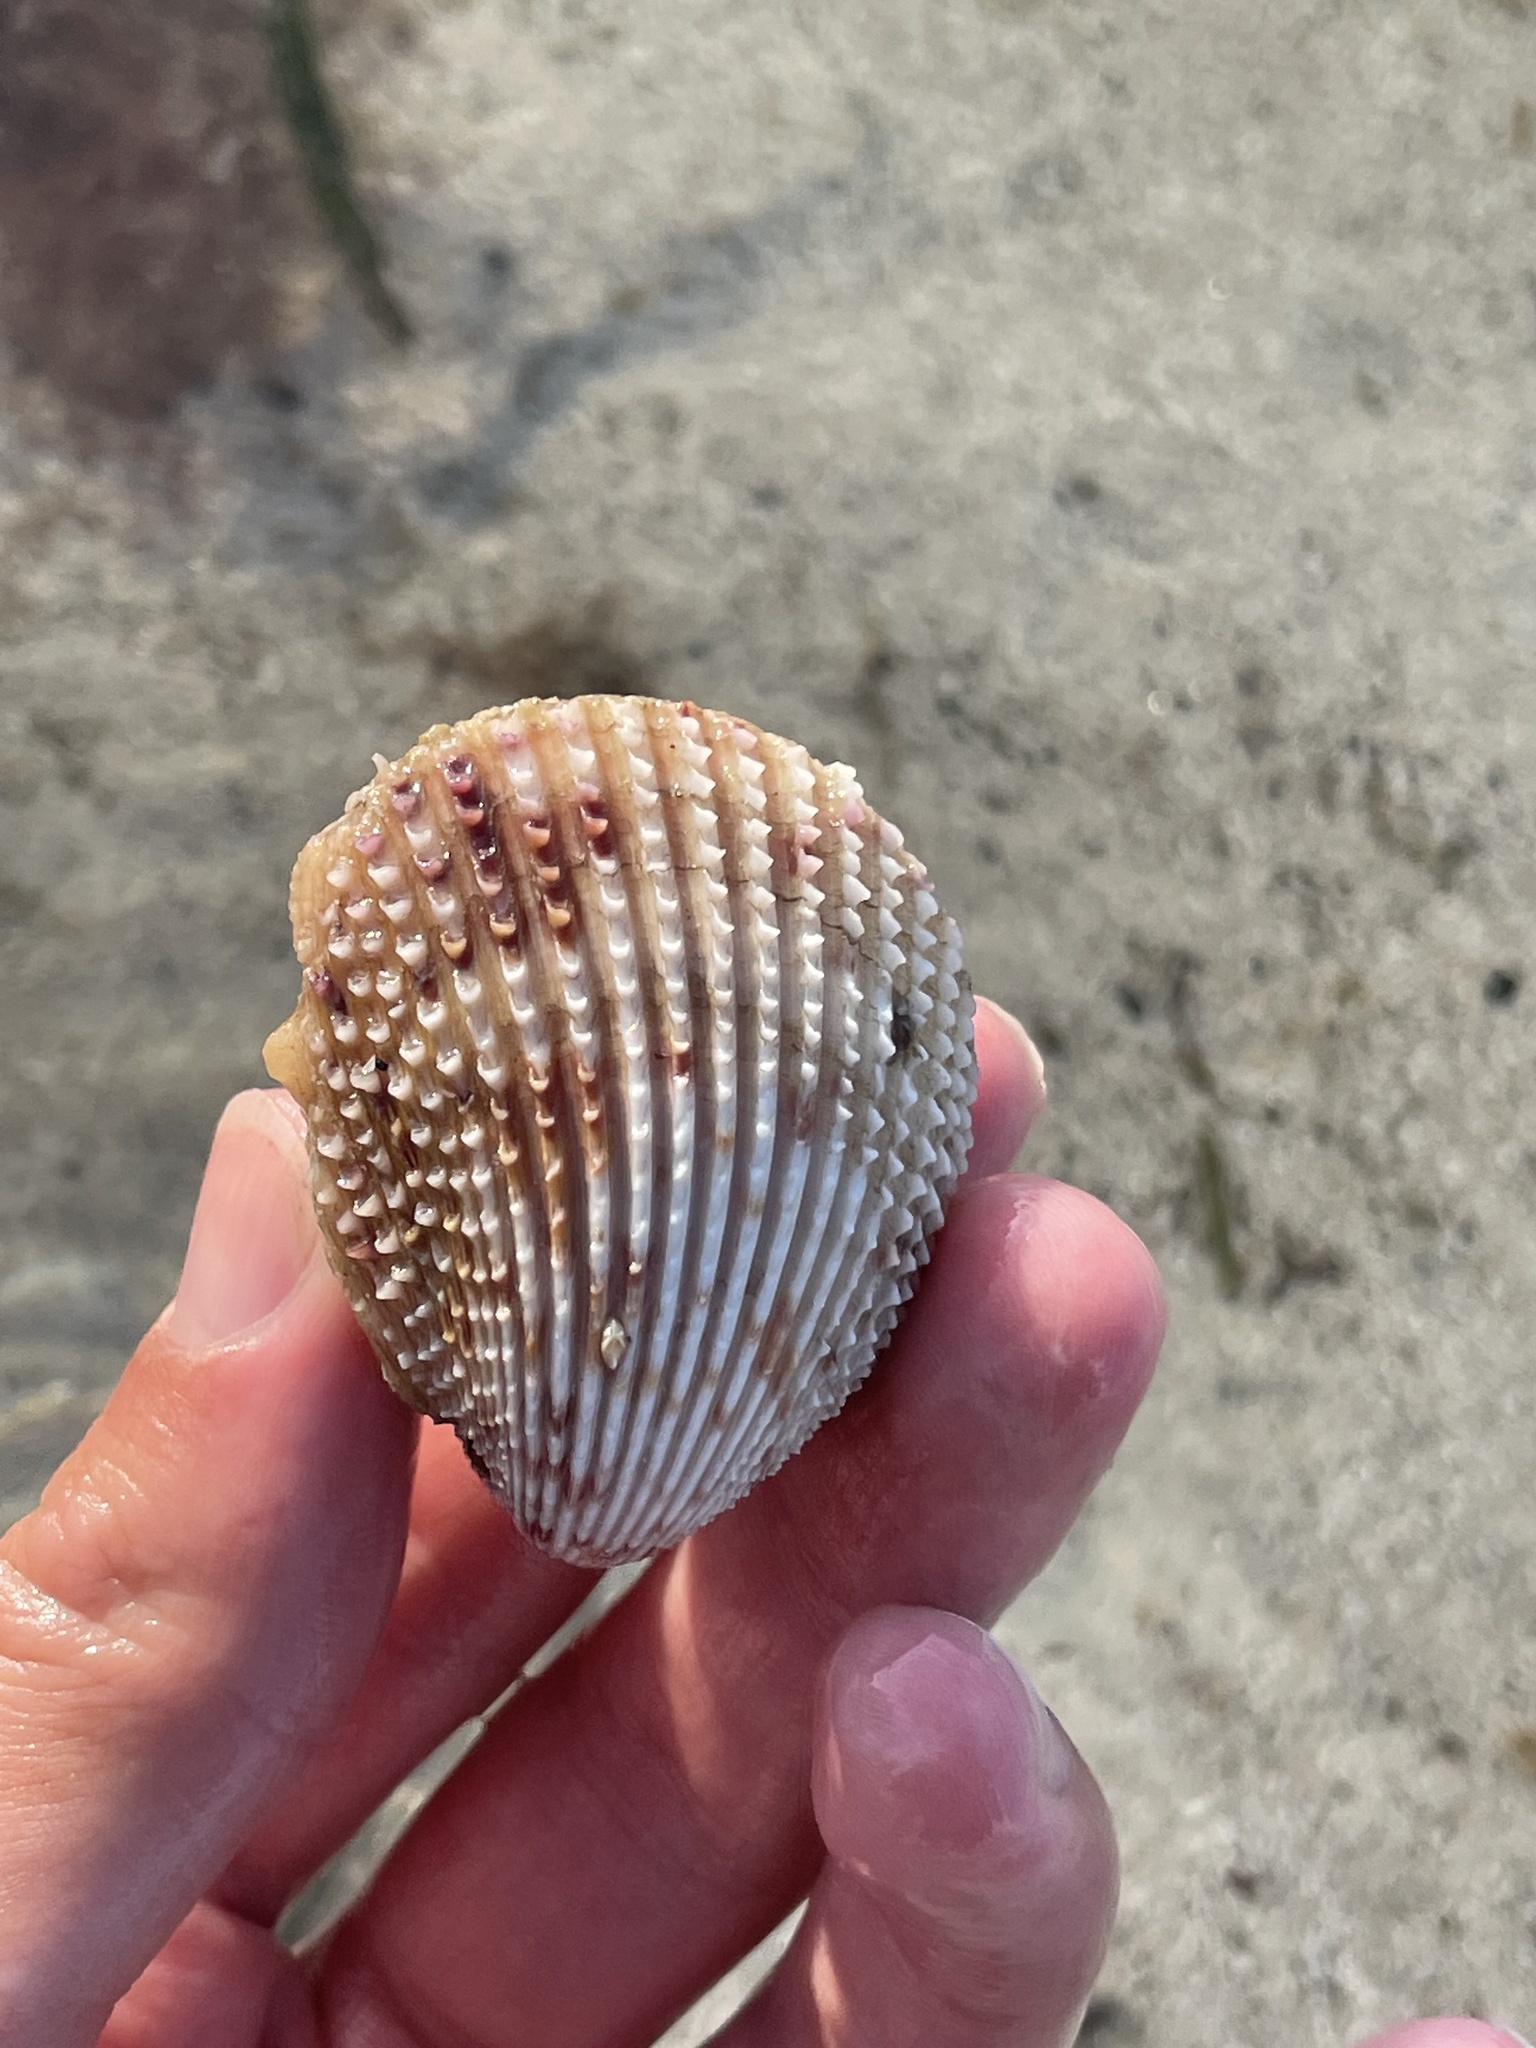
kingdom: Animalia
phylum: Mollusca
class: Bivalvia
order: Cardiida
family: Cardiidae
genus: Trachycardium
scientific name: Trachycardium egmontianum
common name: Florida pricklycockle
